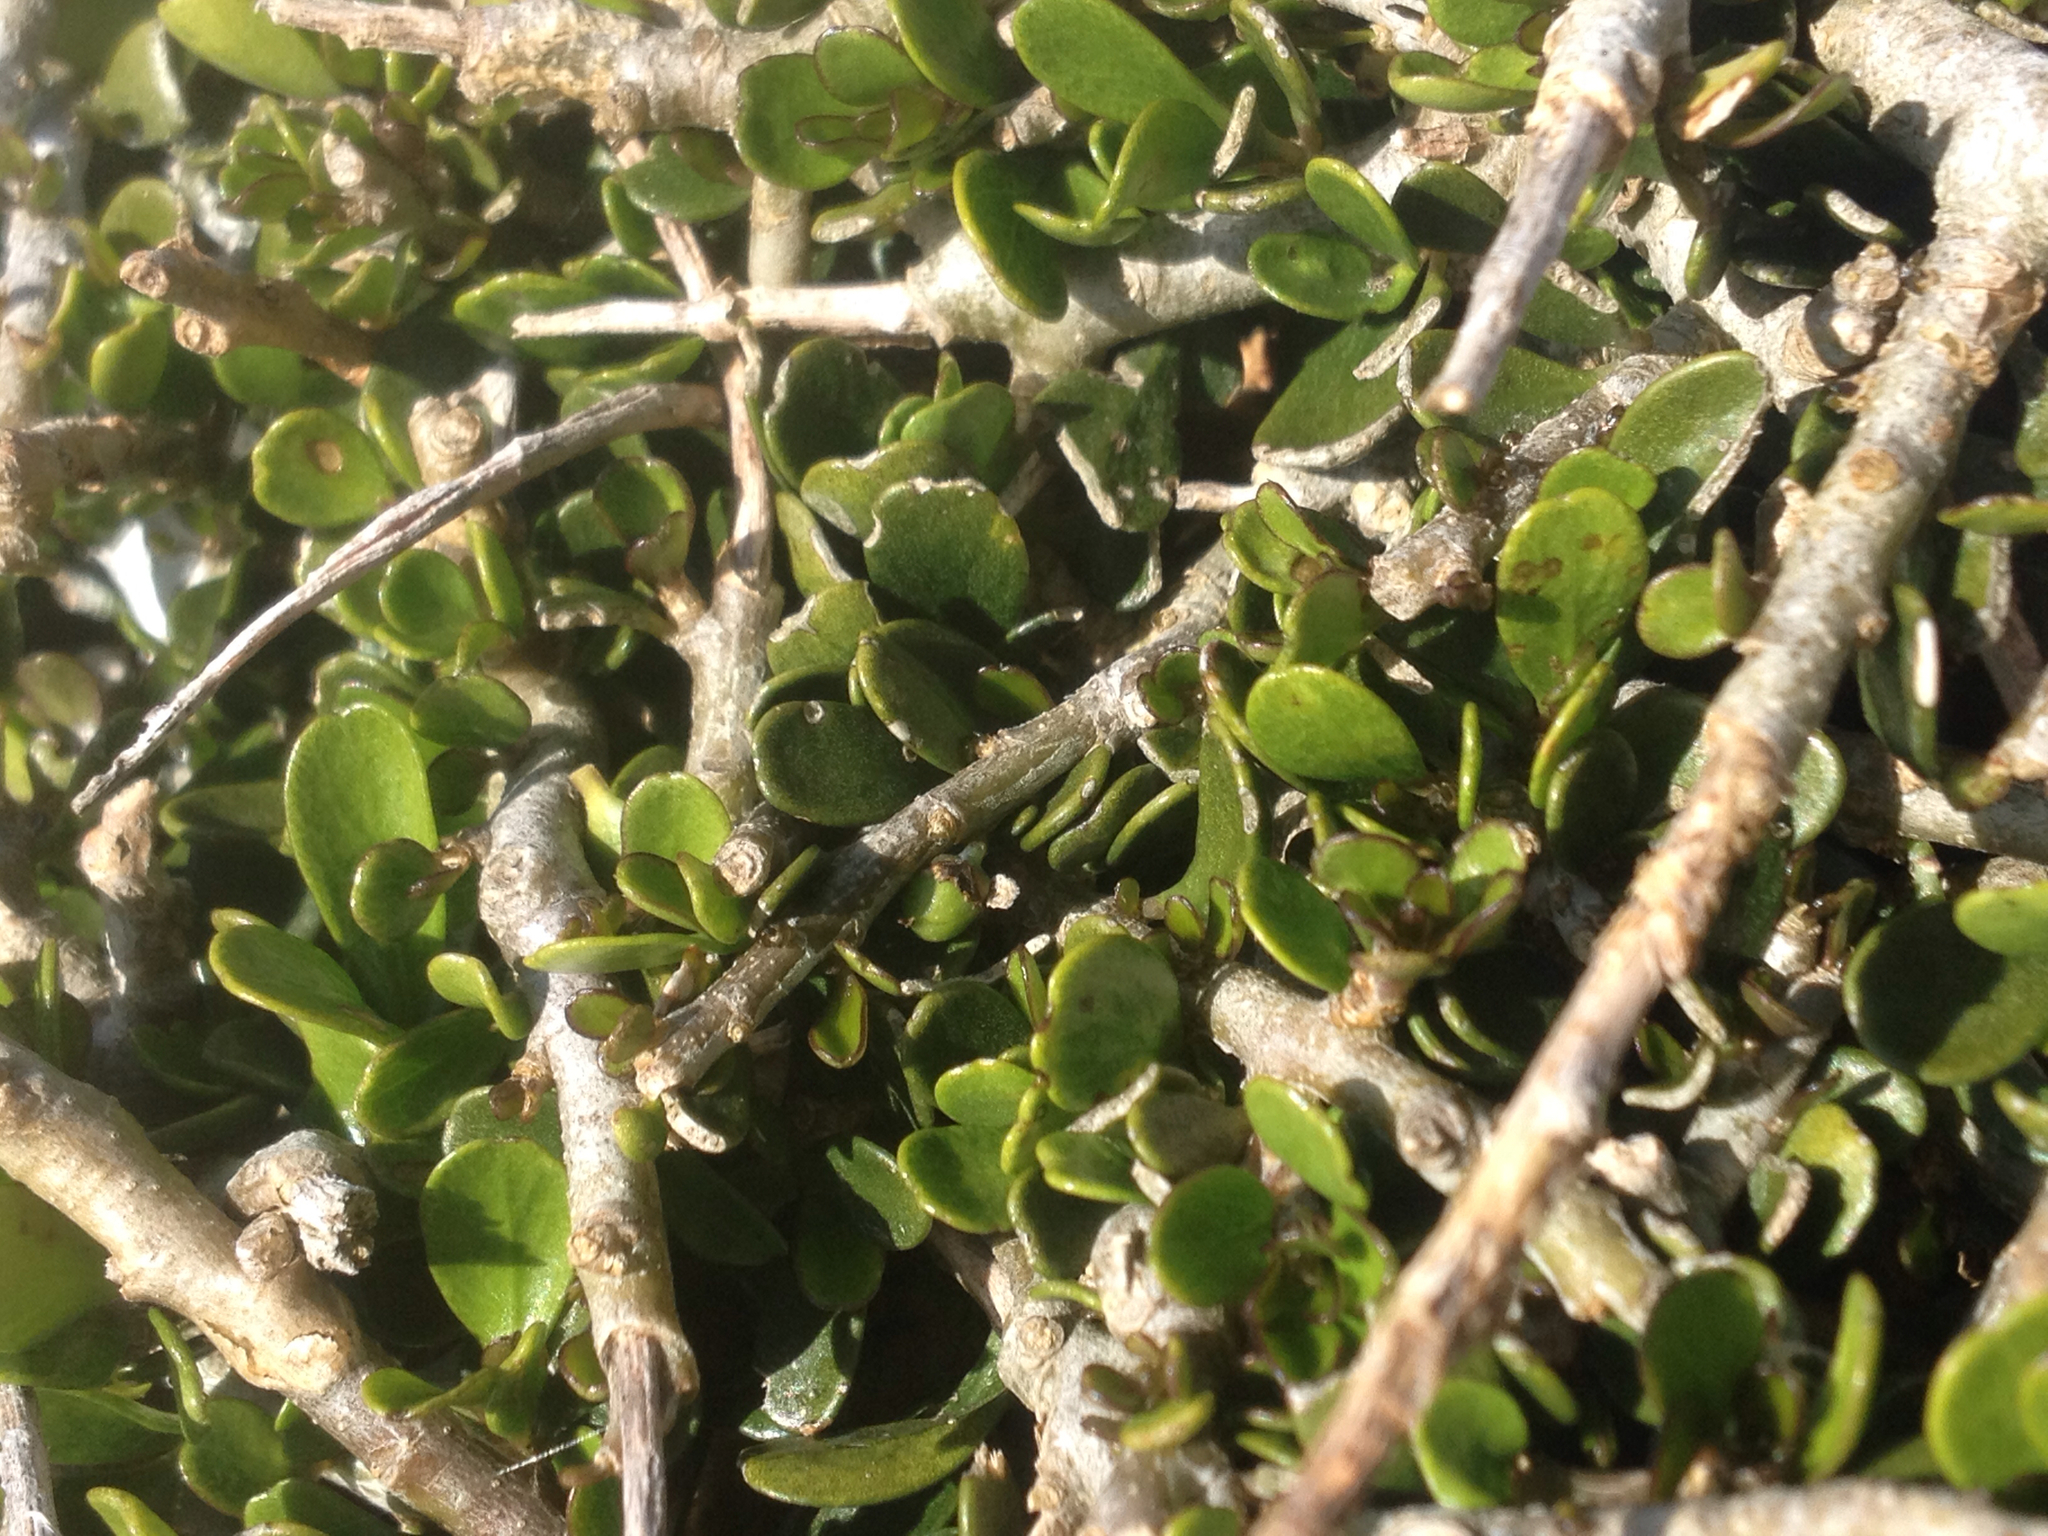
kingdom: Plantae
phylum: Tracheophyta
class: Magnoliopsida
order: Malpighiales
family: Violaceae
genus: Melicytus
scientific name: Melicytus crassifolius
